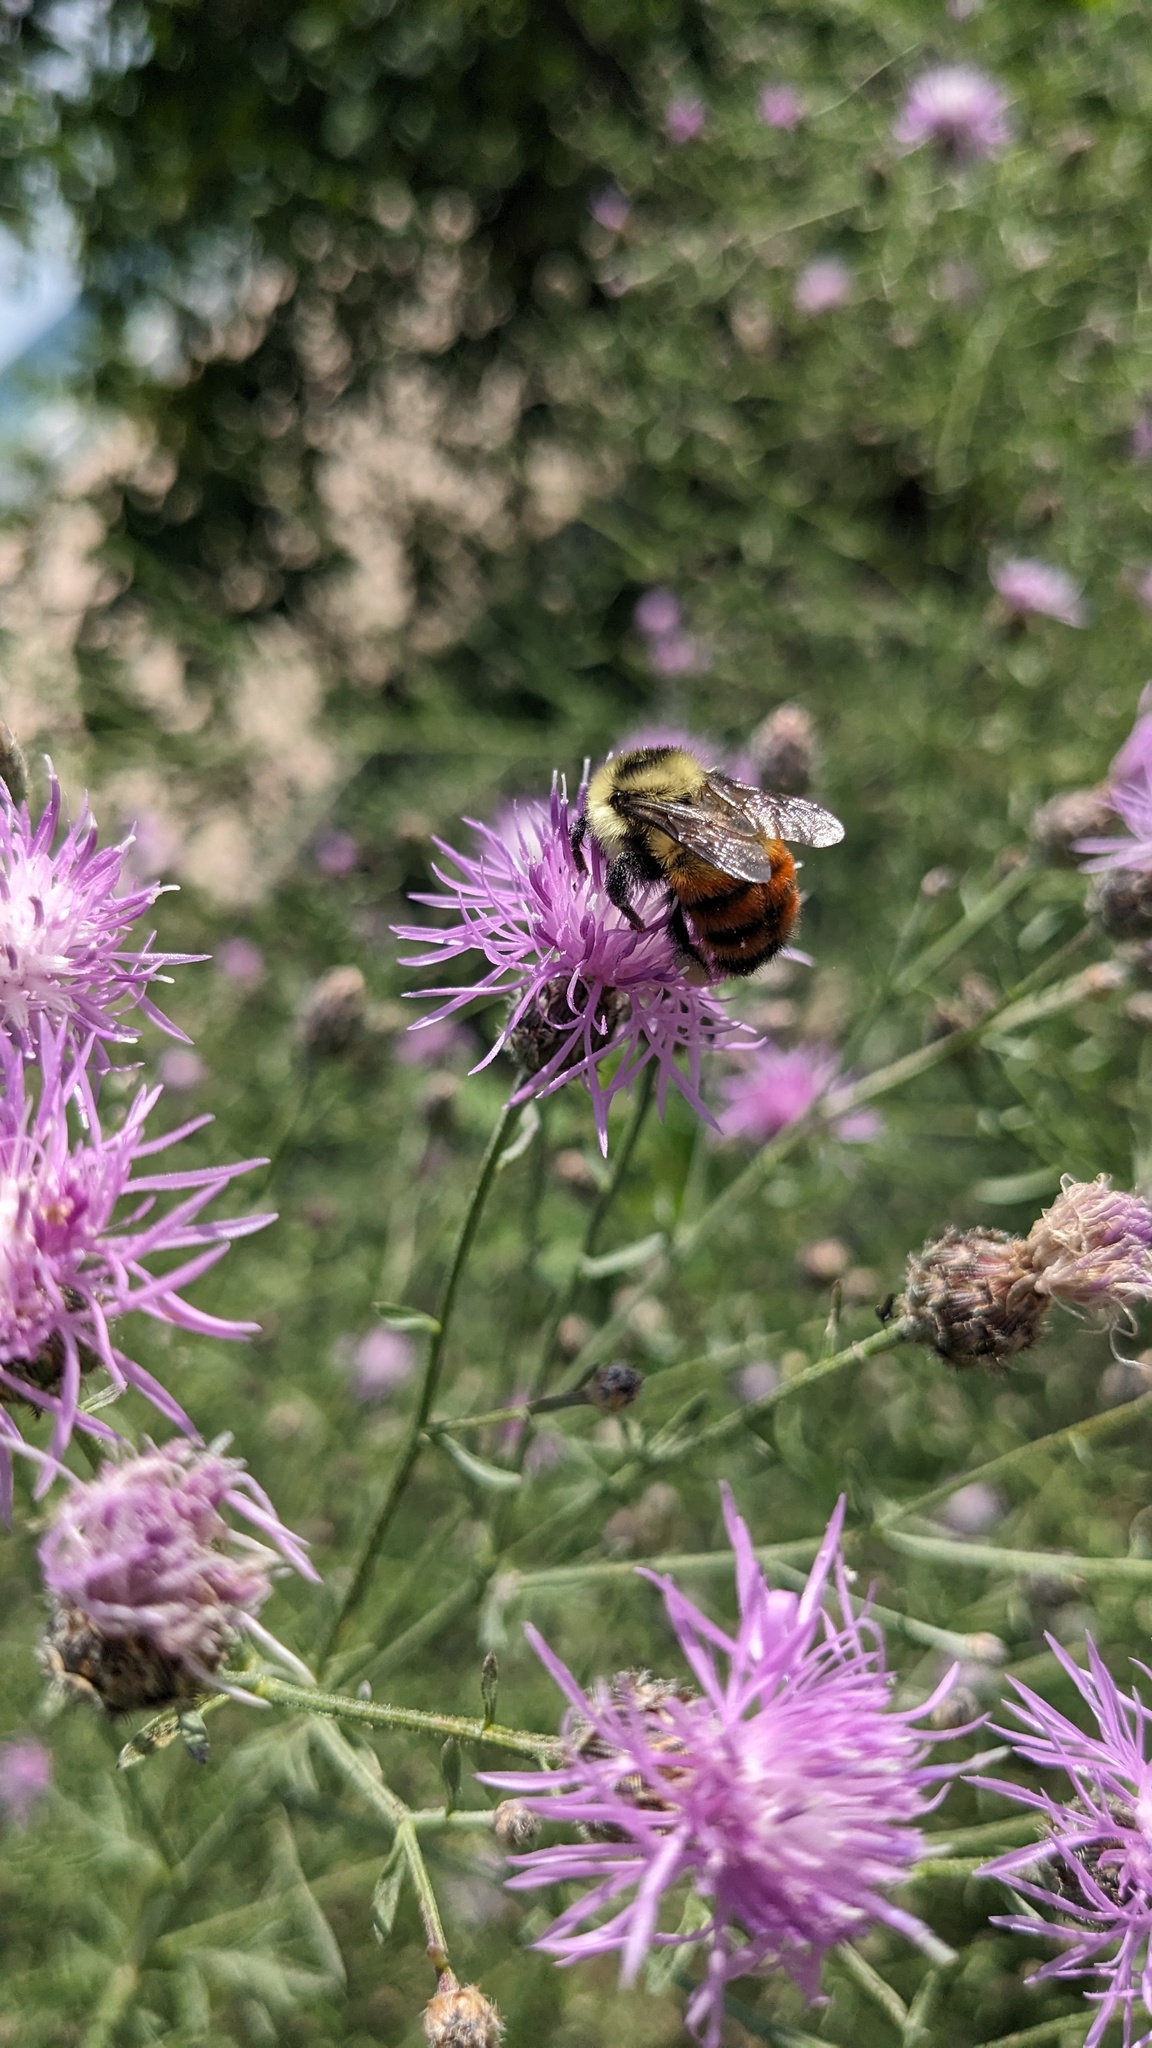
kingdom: Animalia
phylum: Arthropoda
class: Insecta
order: Hymenoptera
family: Apidae
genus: Bombus
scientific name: Bombus rufocinctus
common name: Red-belted bumble bee
